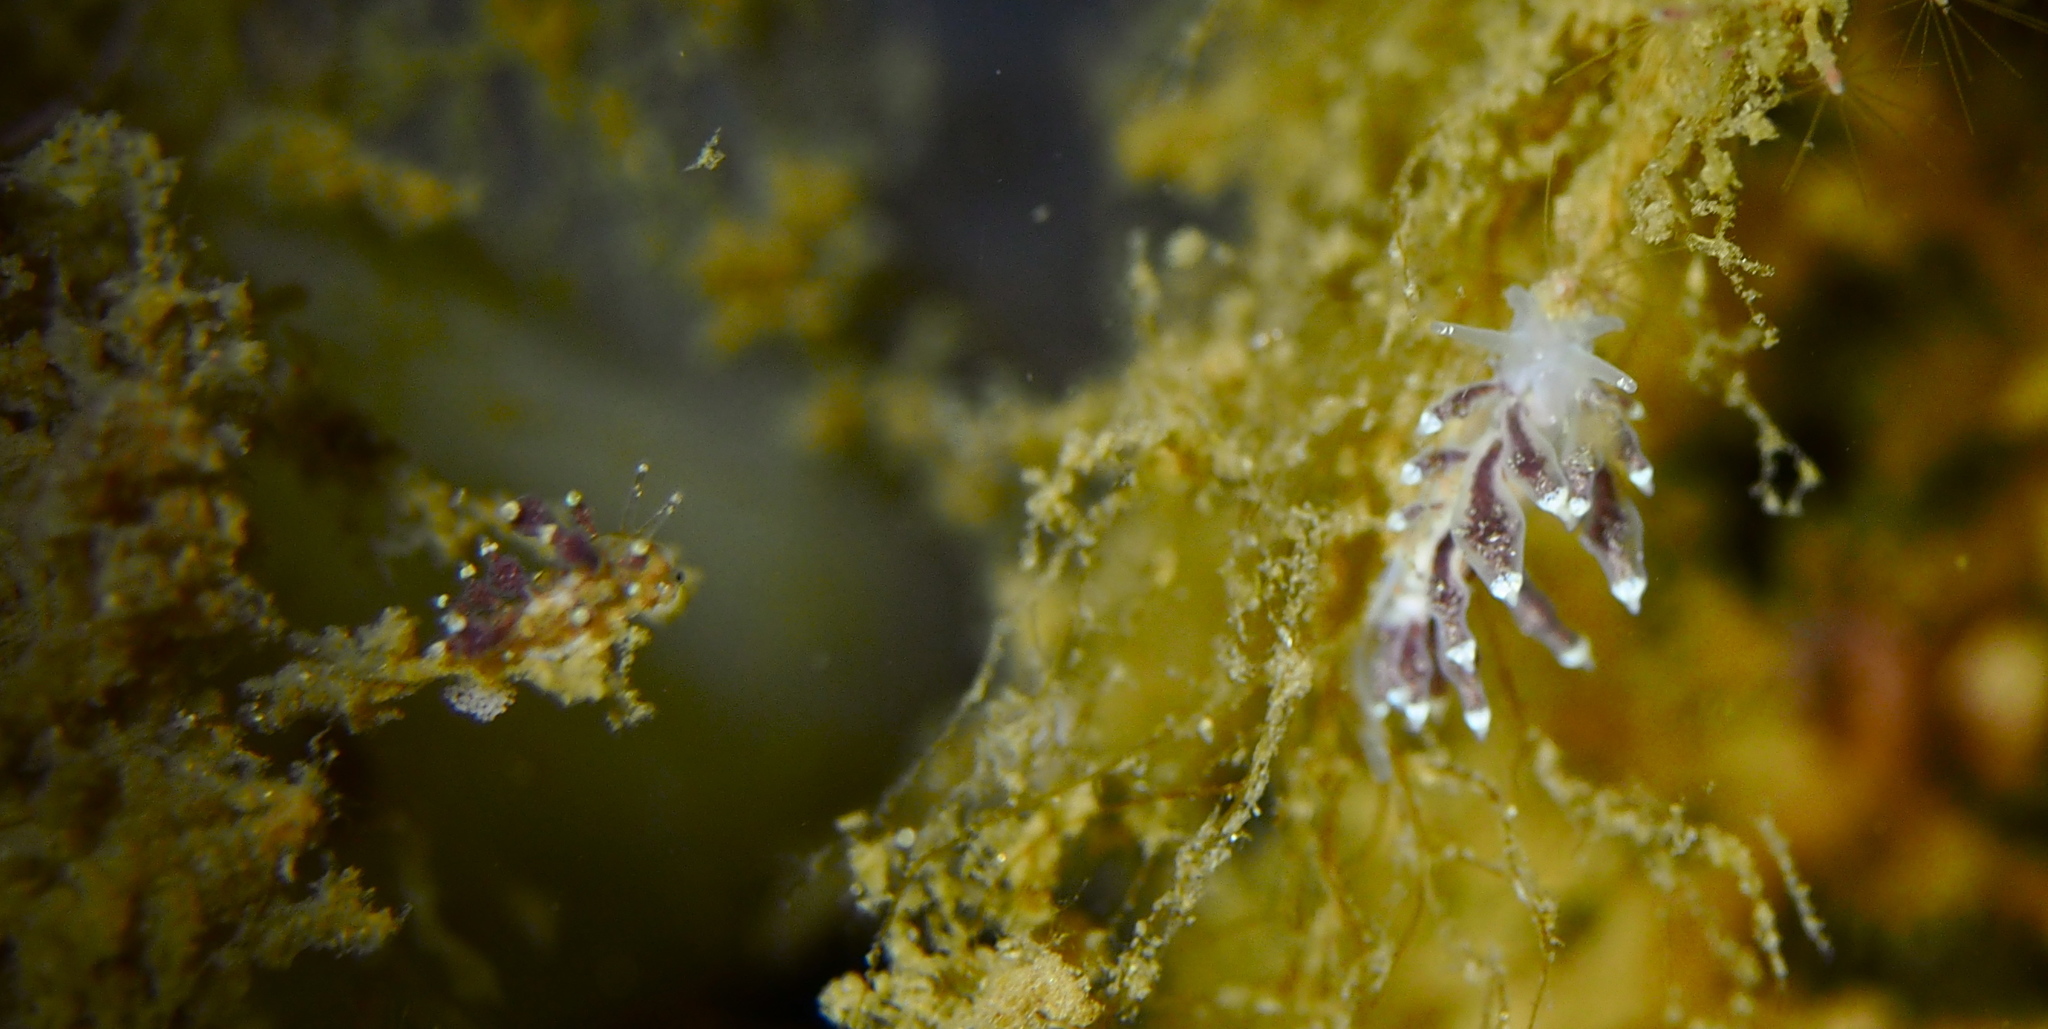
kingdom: Animalia
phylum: Mollusca
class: Gastropoda
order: Nudibranchia
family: Eubranchidae
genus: Eubranchus
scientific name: Eubranchus exiguus
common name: Balloon aeolis
